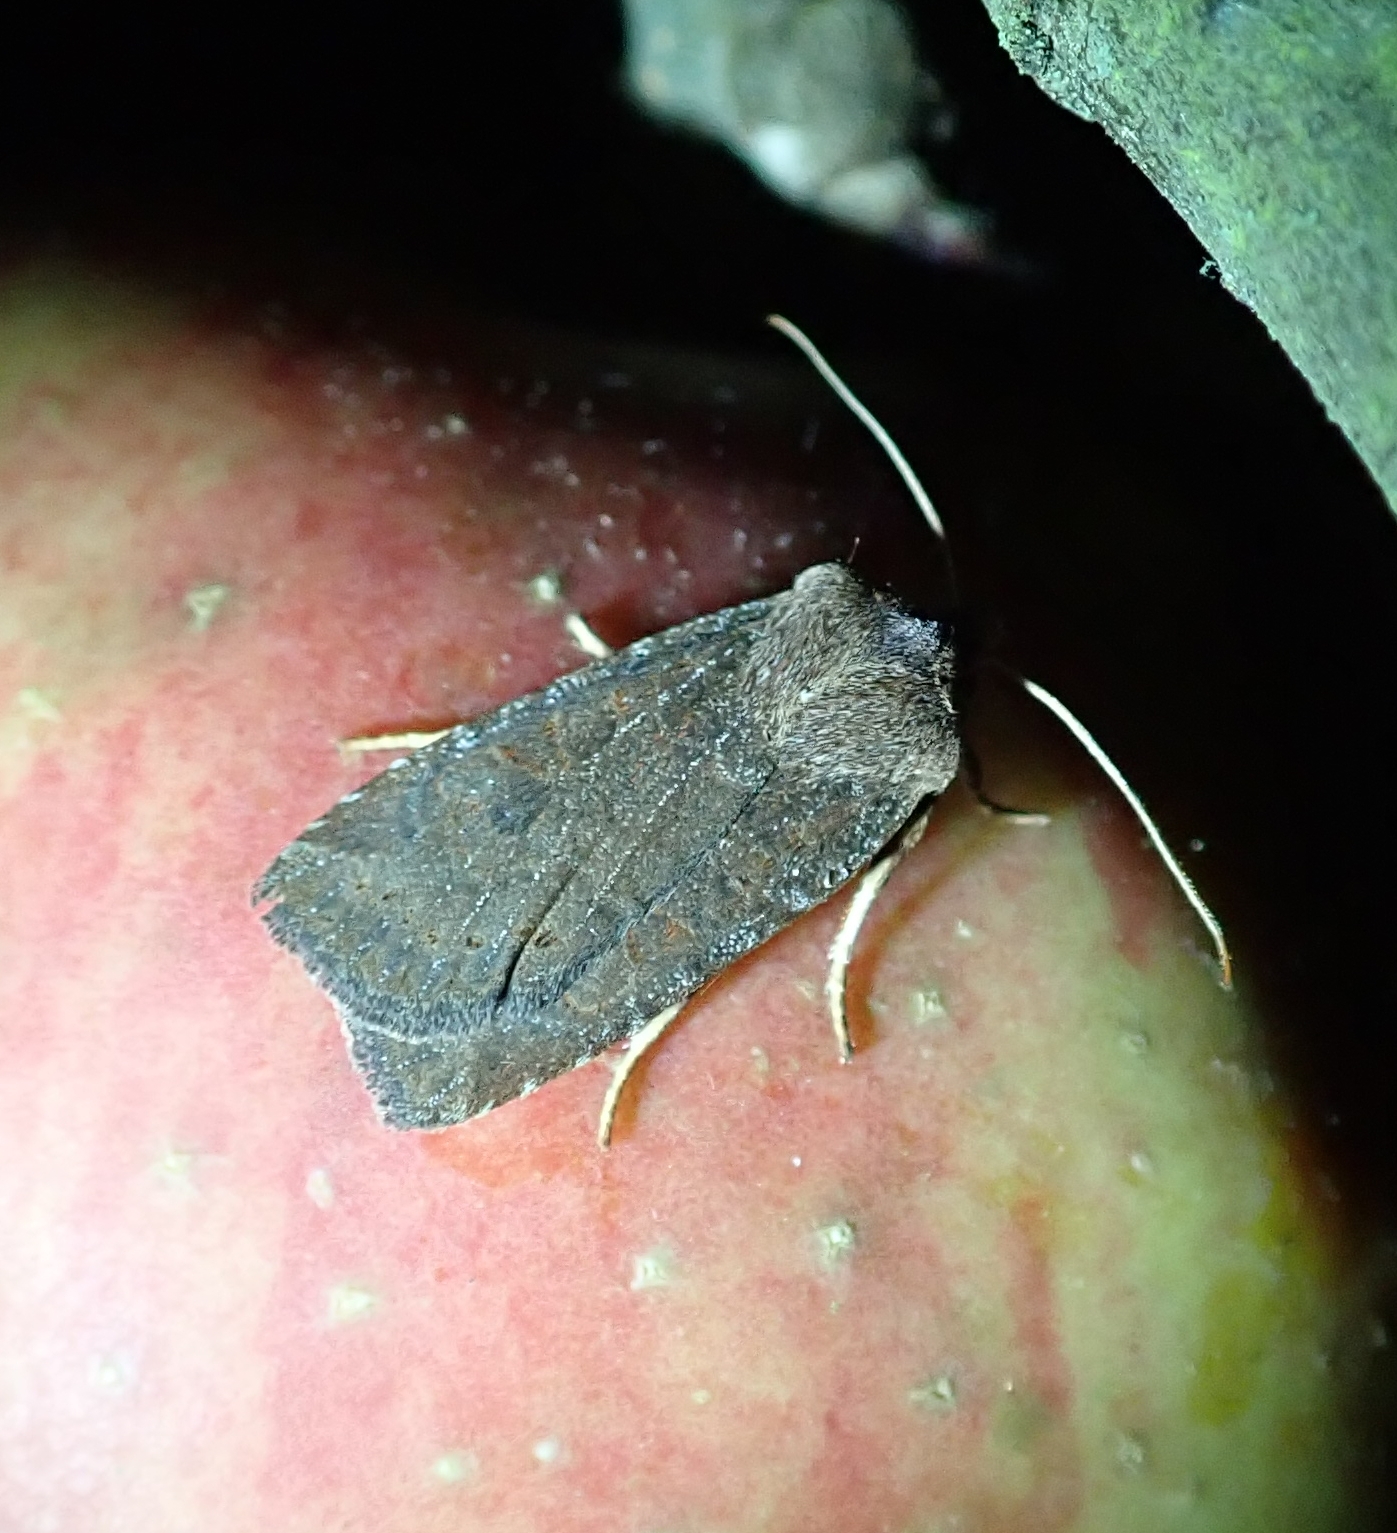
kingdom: Animalia
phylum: Arthropoda
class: Insecta
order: Lepidoptera
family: Noctuidae
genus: Conistra
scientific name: Conistra vaccinii
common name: Chestnut
